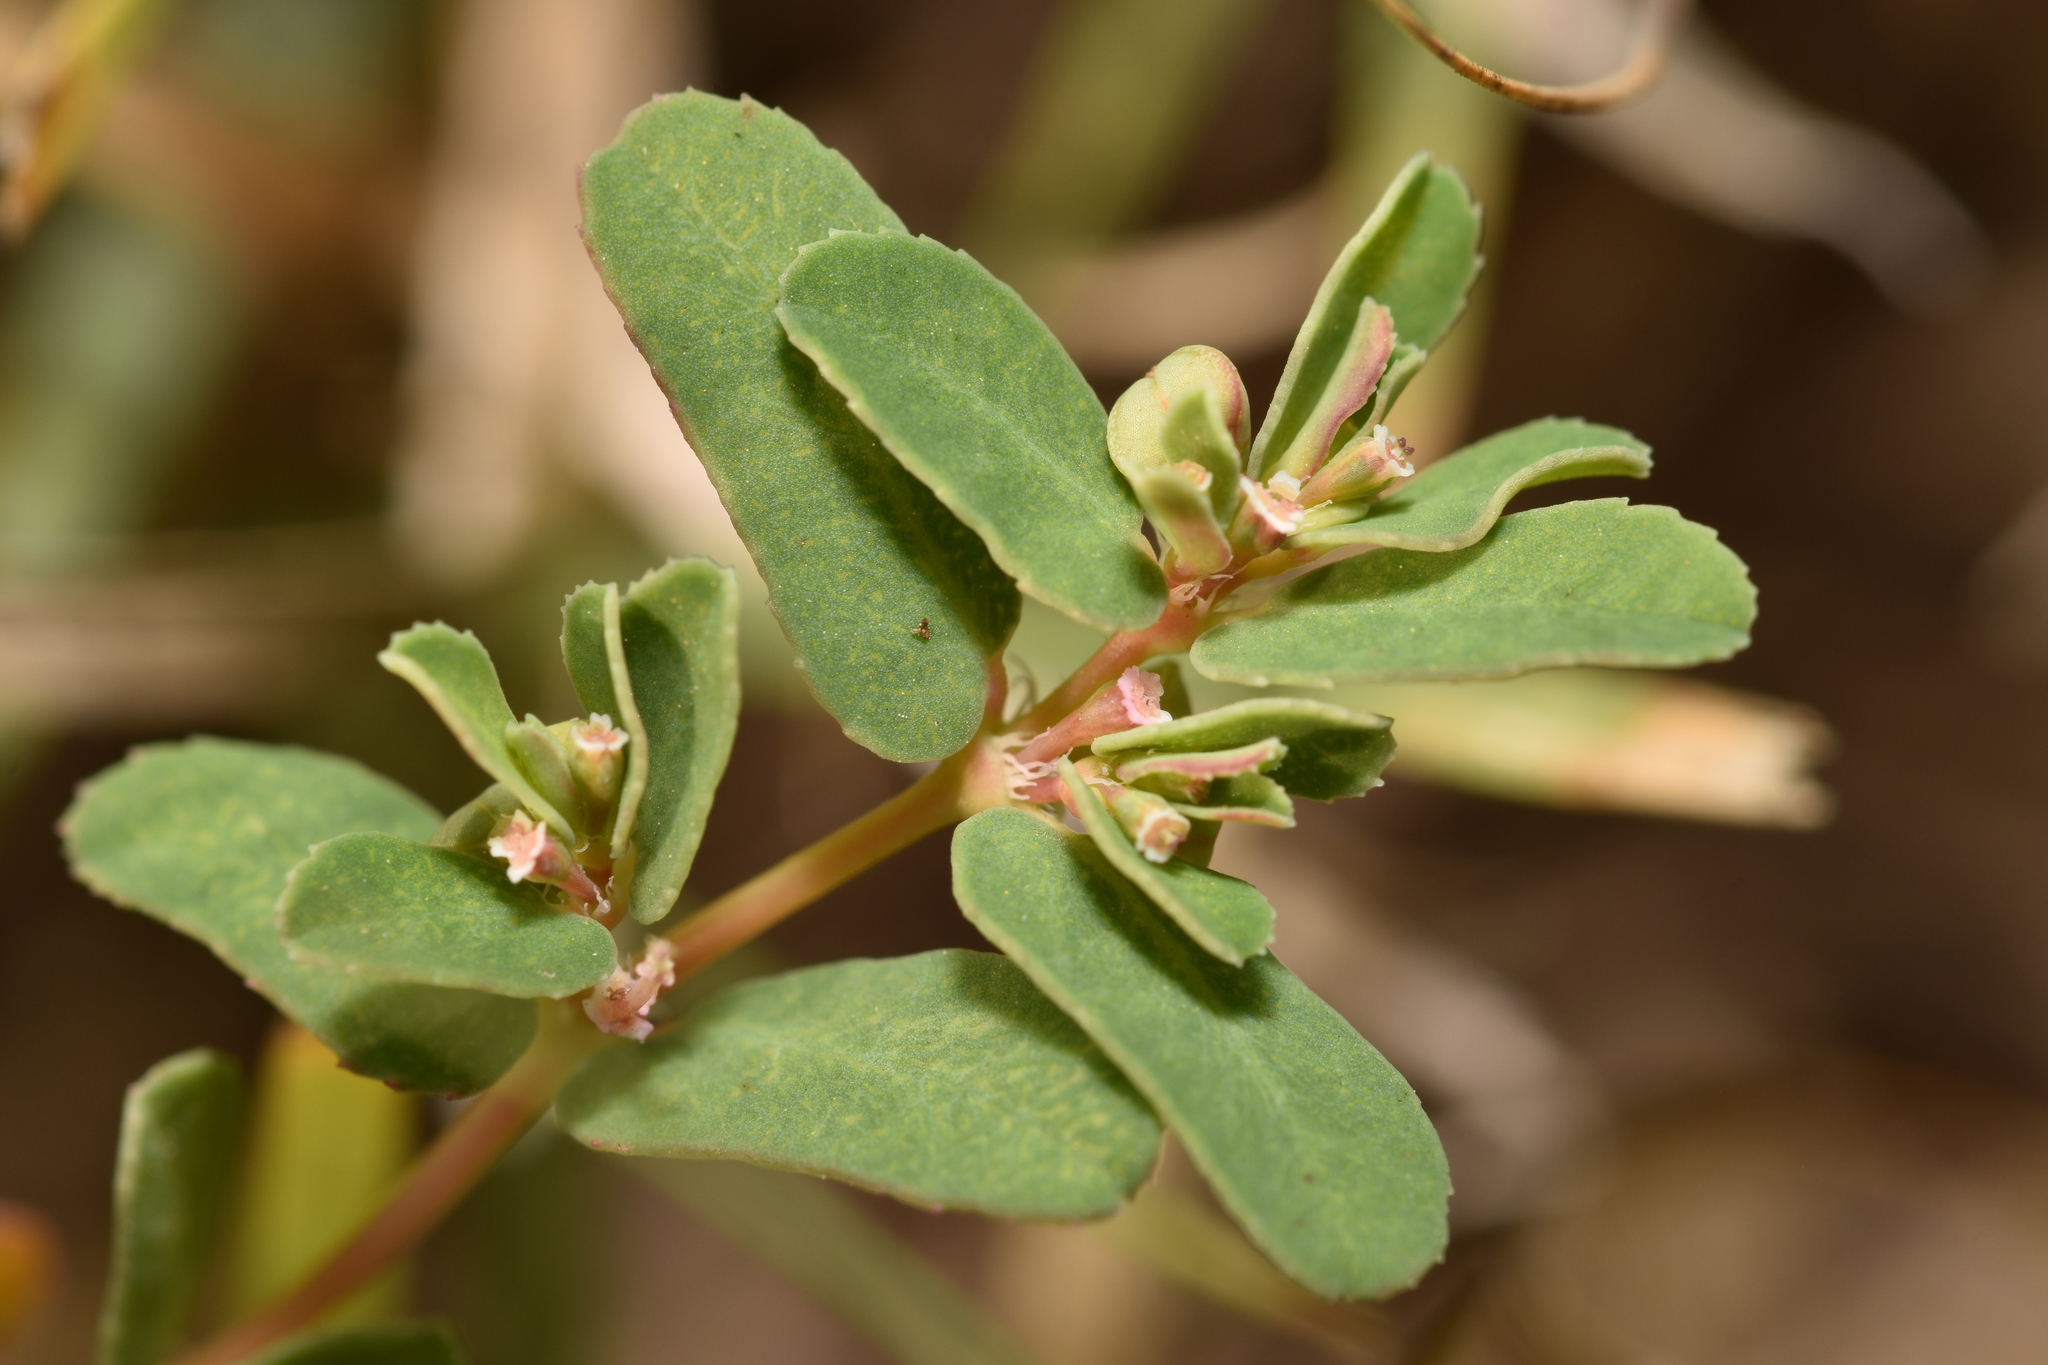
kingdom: Plantae
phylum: Tracheophyta
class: Magnoliopsida
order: Malpighiales
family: Euphorbiaceae
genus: Euphorbia
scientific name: Euphorbia glyptosperma
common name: Corrugate-seeded spurge
